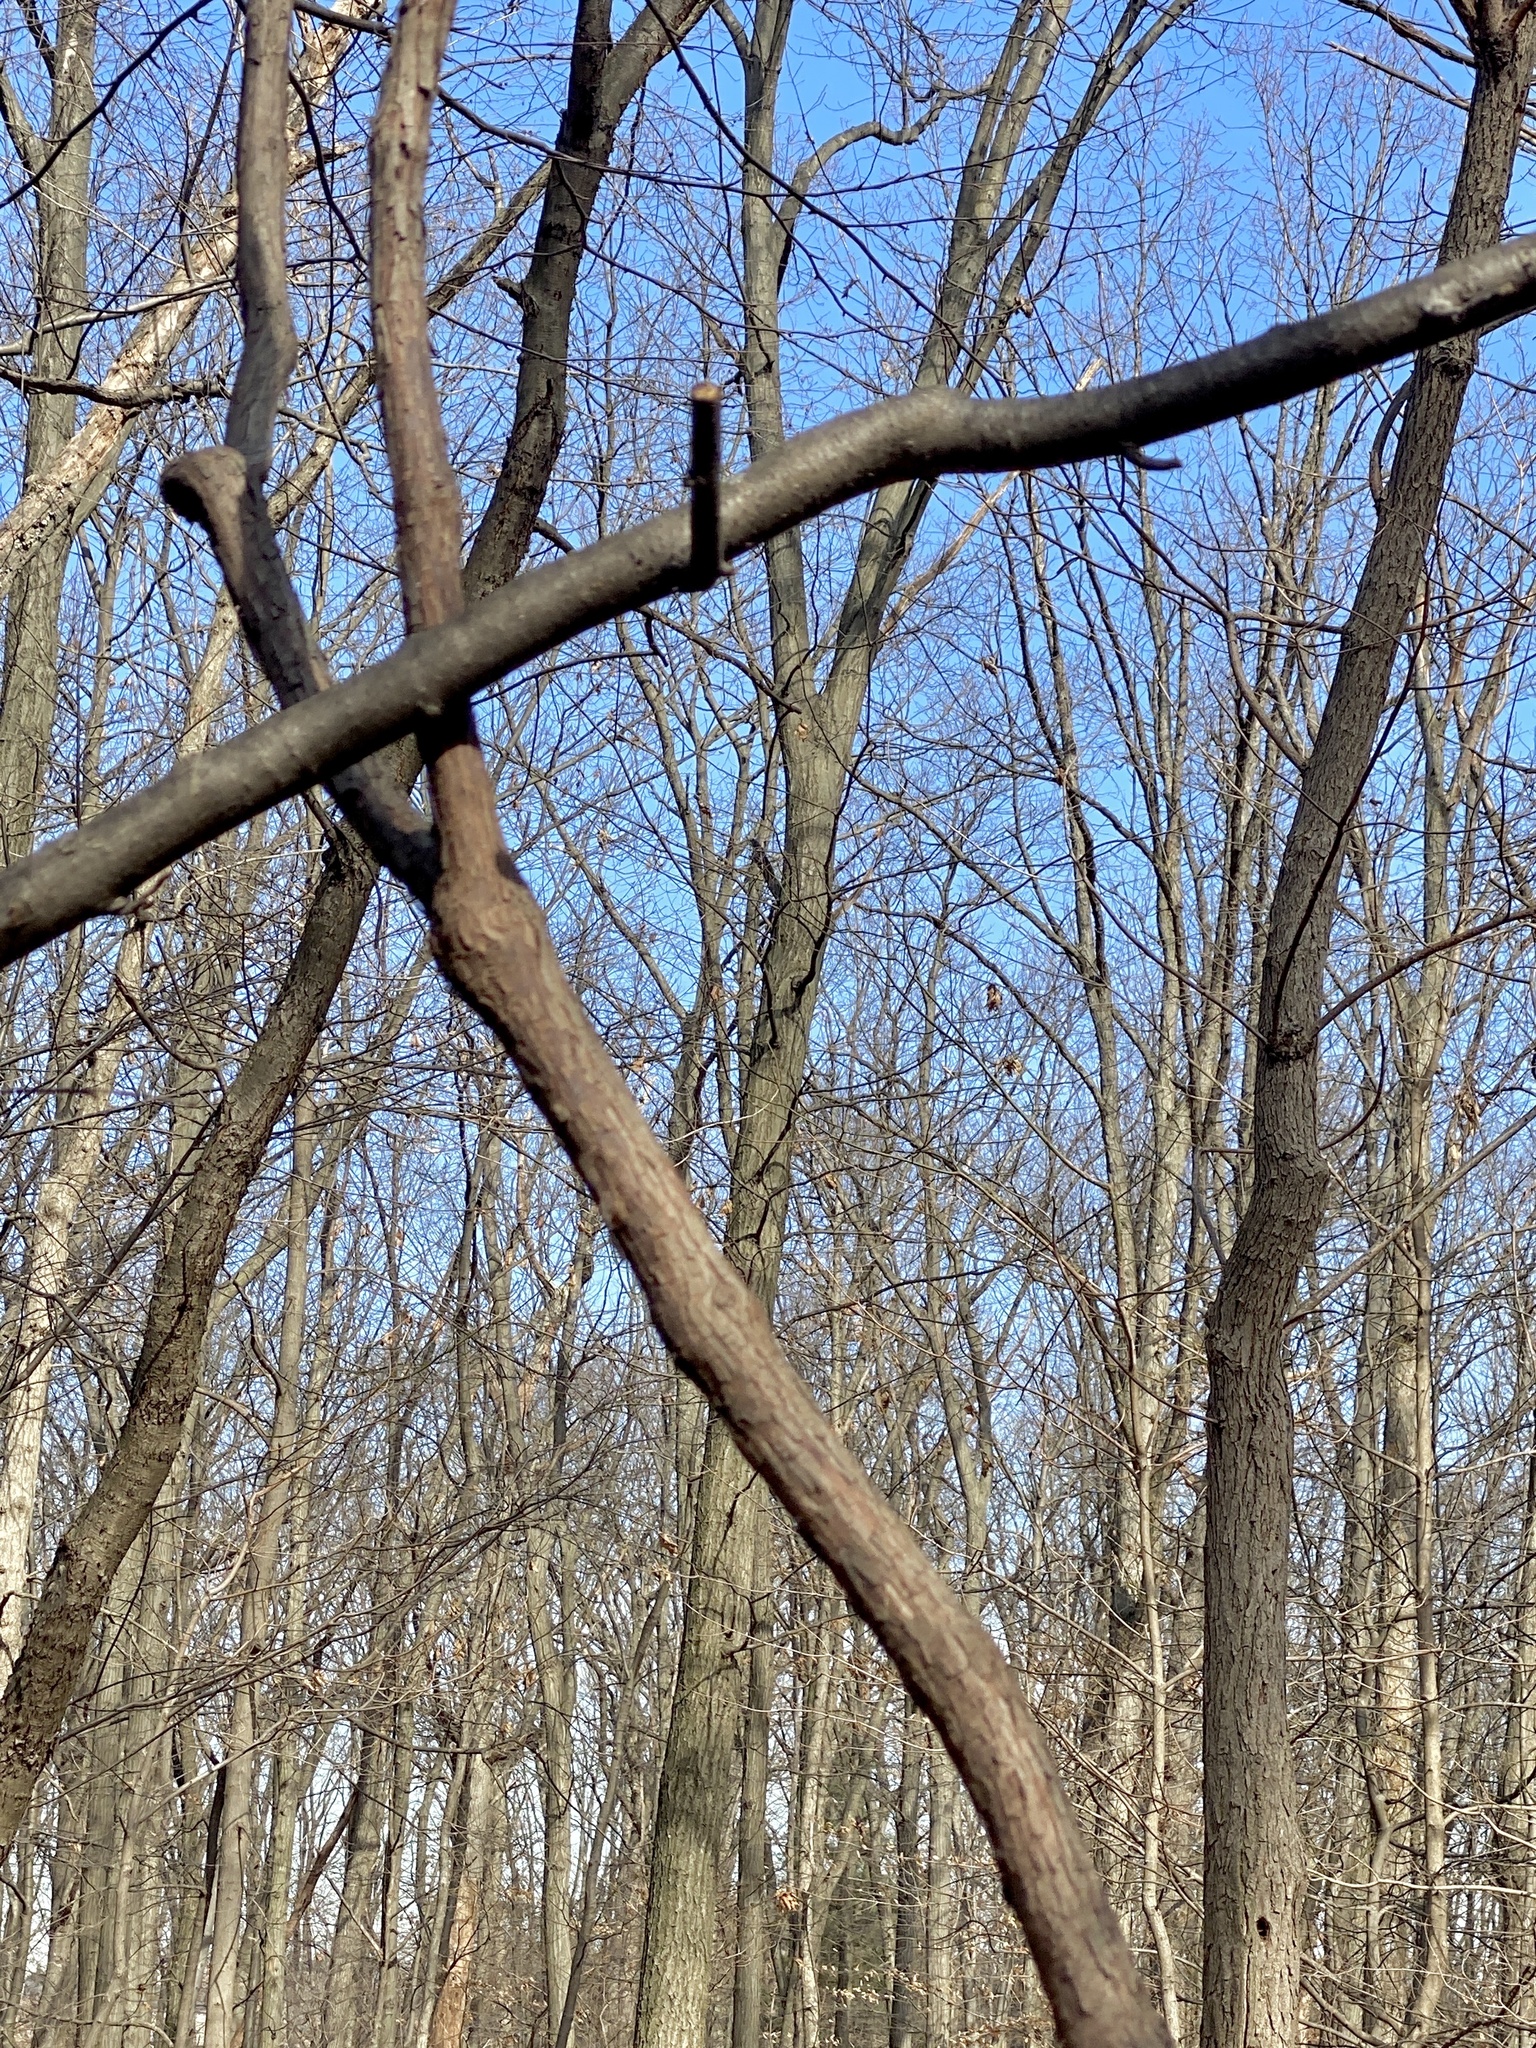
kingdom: Plantae
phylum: Tracheophyta
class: Magnoliopsida
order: Vitales
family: Vitaceae
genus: Vitis
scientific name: Vitis
